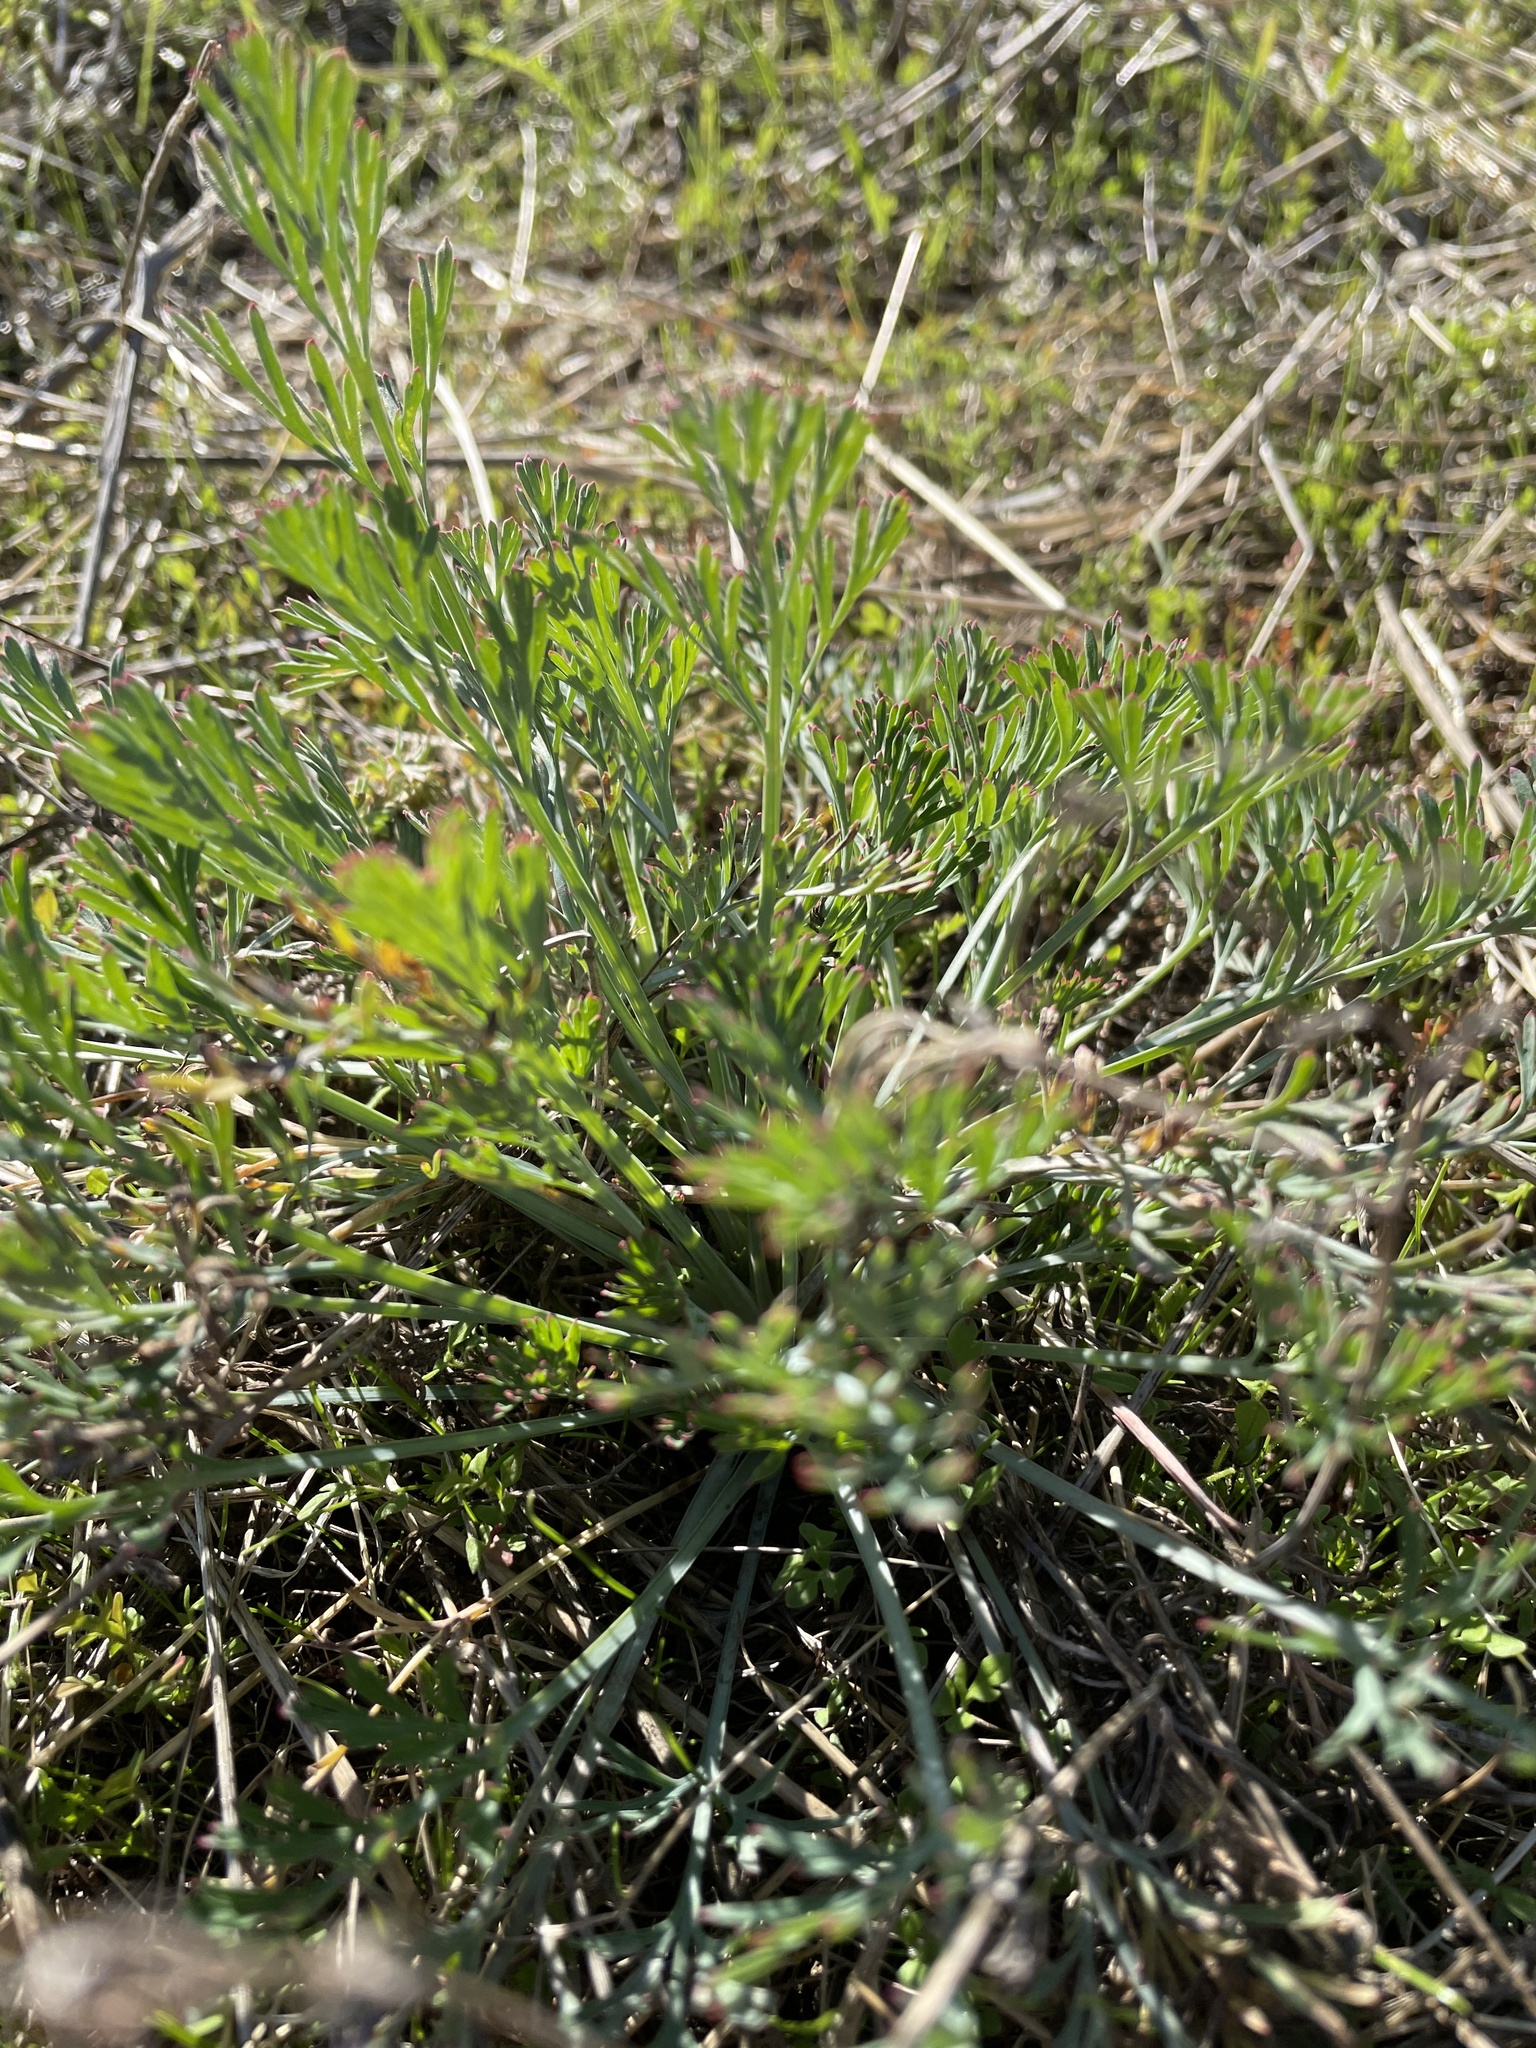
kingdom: Plantae
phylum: Tracheophyta
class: Magnoliopsida
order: Ranunculales
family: Papaveraceae
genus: Eschscholzia
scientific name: Eschscholzia californica
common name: California poppy
